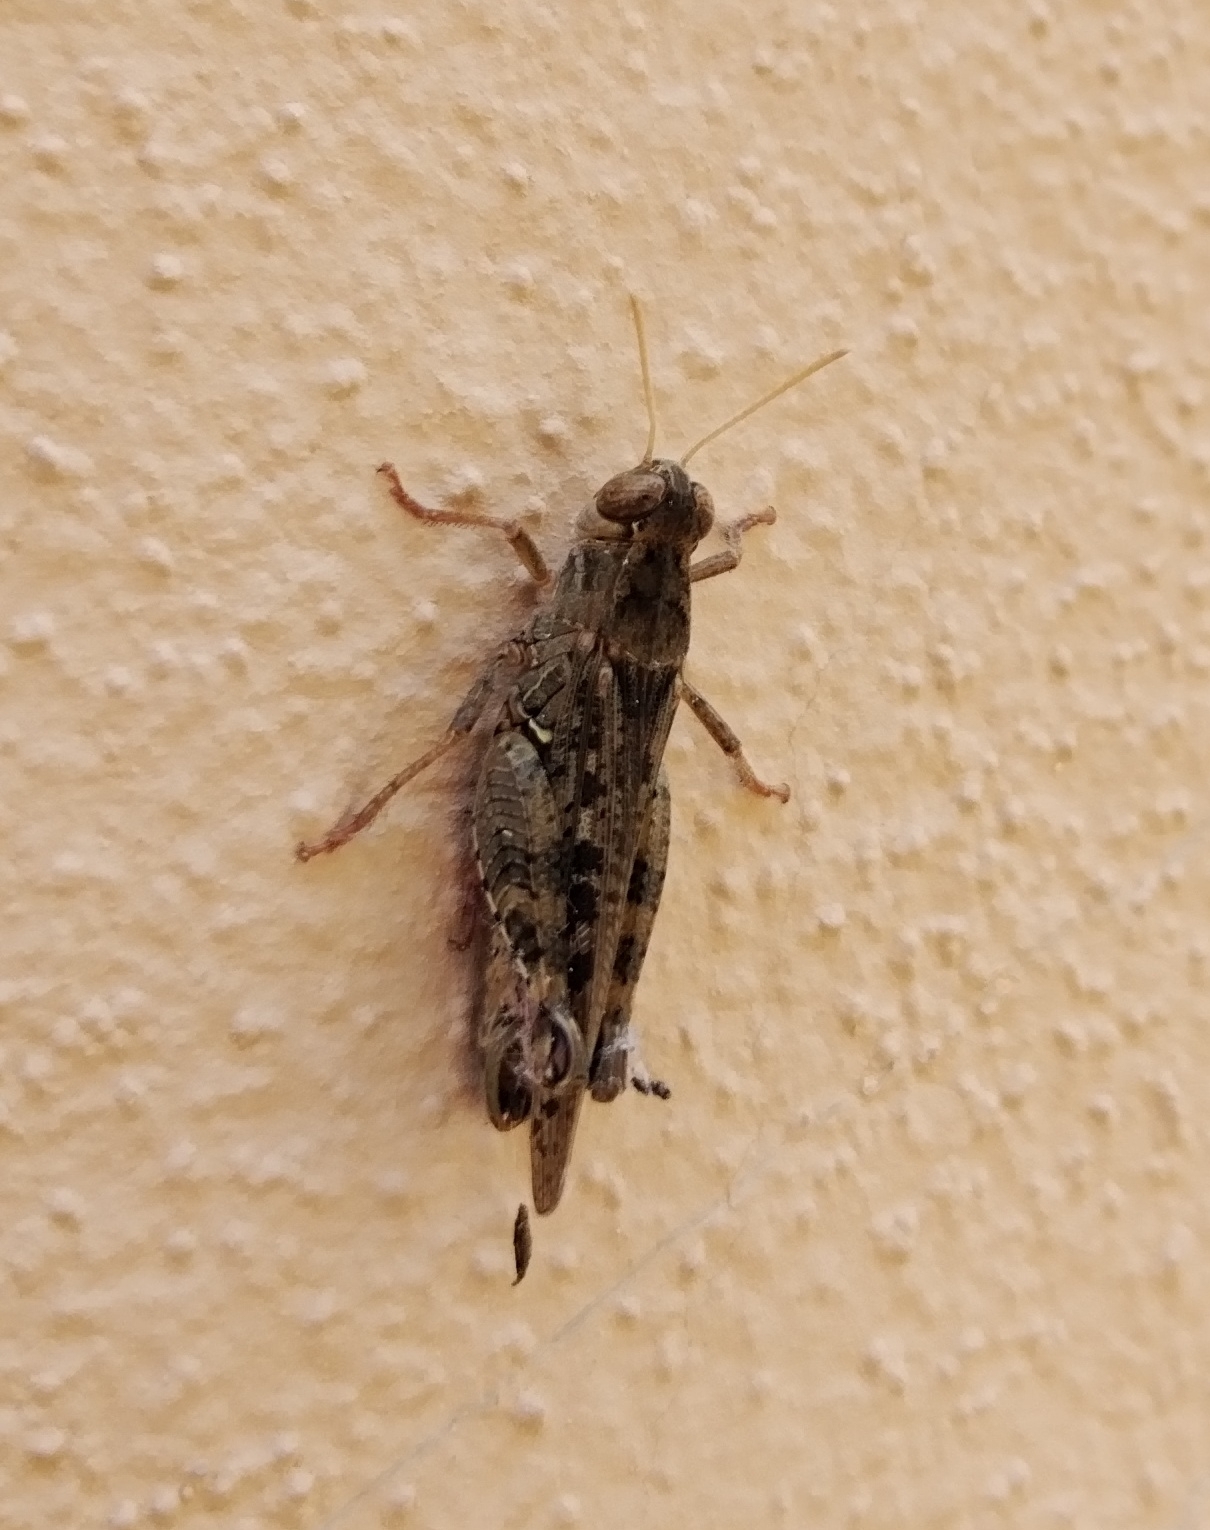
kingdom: Animalia
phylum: Arthropoda
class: Insecta
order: Orthoptera
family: Acrididae
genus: Calliptamus
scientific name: Calliptamus italicus
